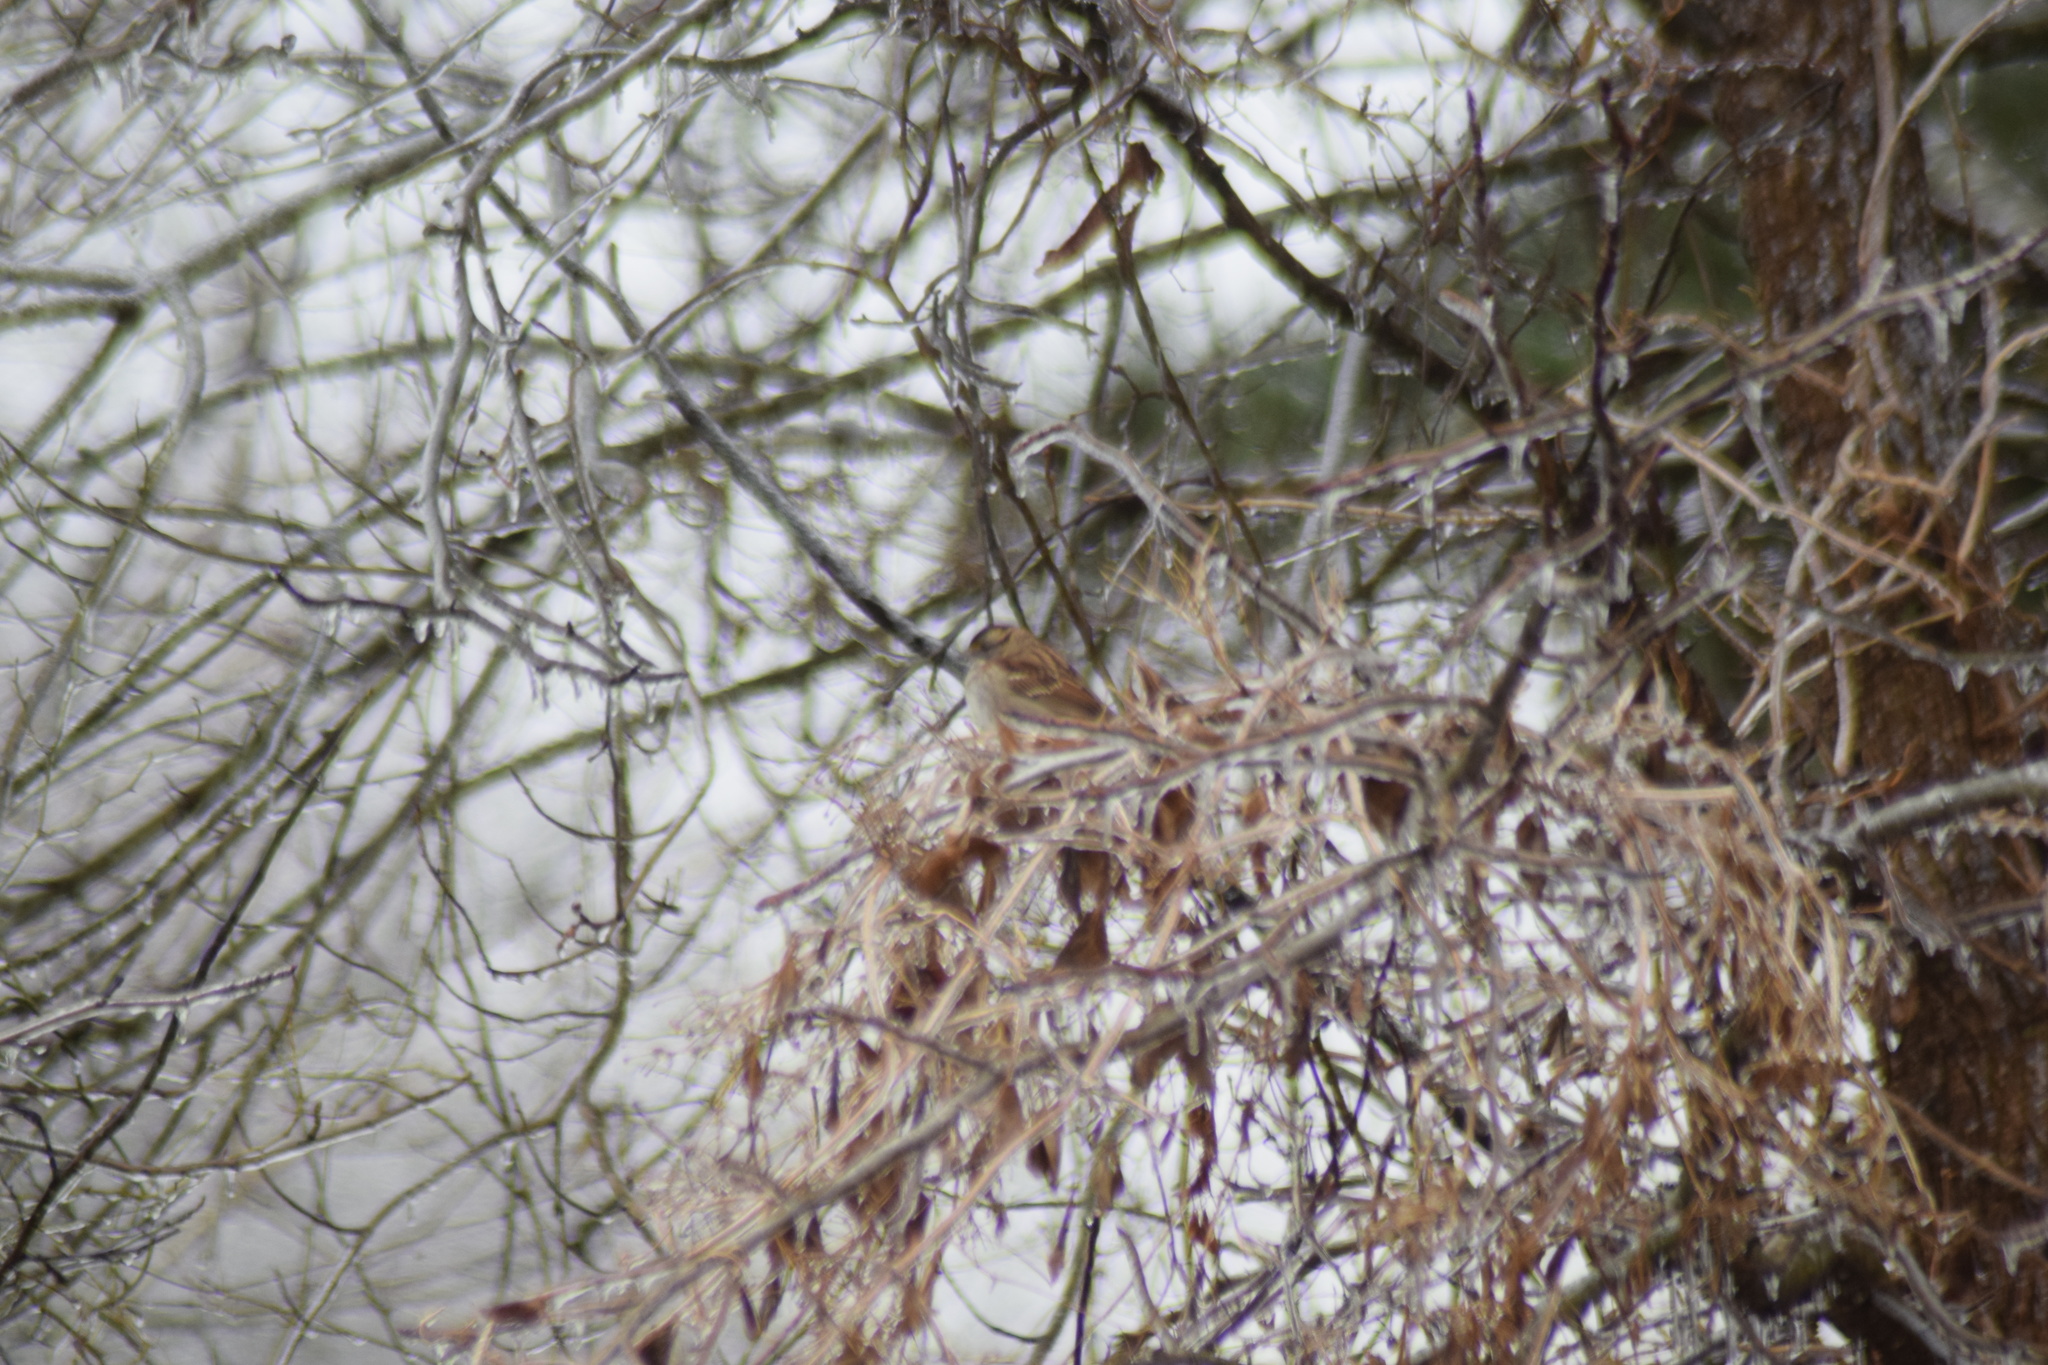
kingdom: Animalia
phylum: Chordata
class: Aves
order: Passeriformes
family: Passerellidae
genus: Zonotrichia
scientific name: Zonotrichia albicollis
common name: White-throated sparrow
